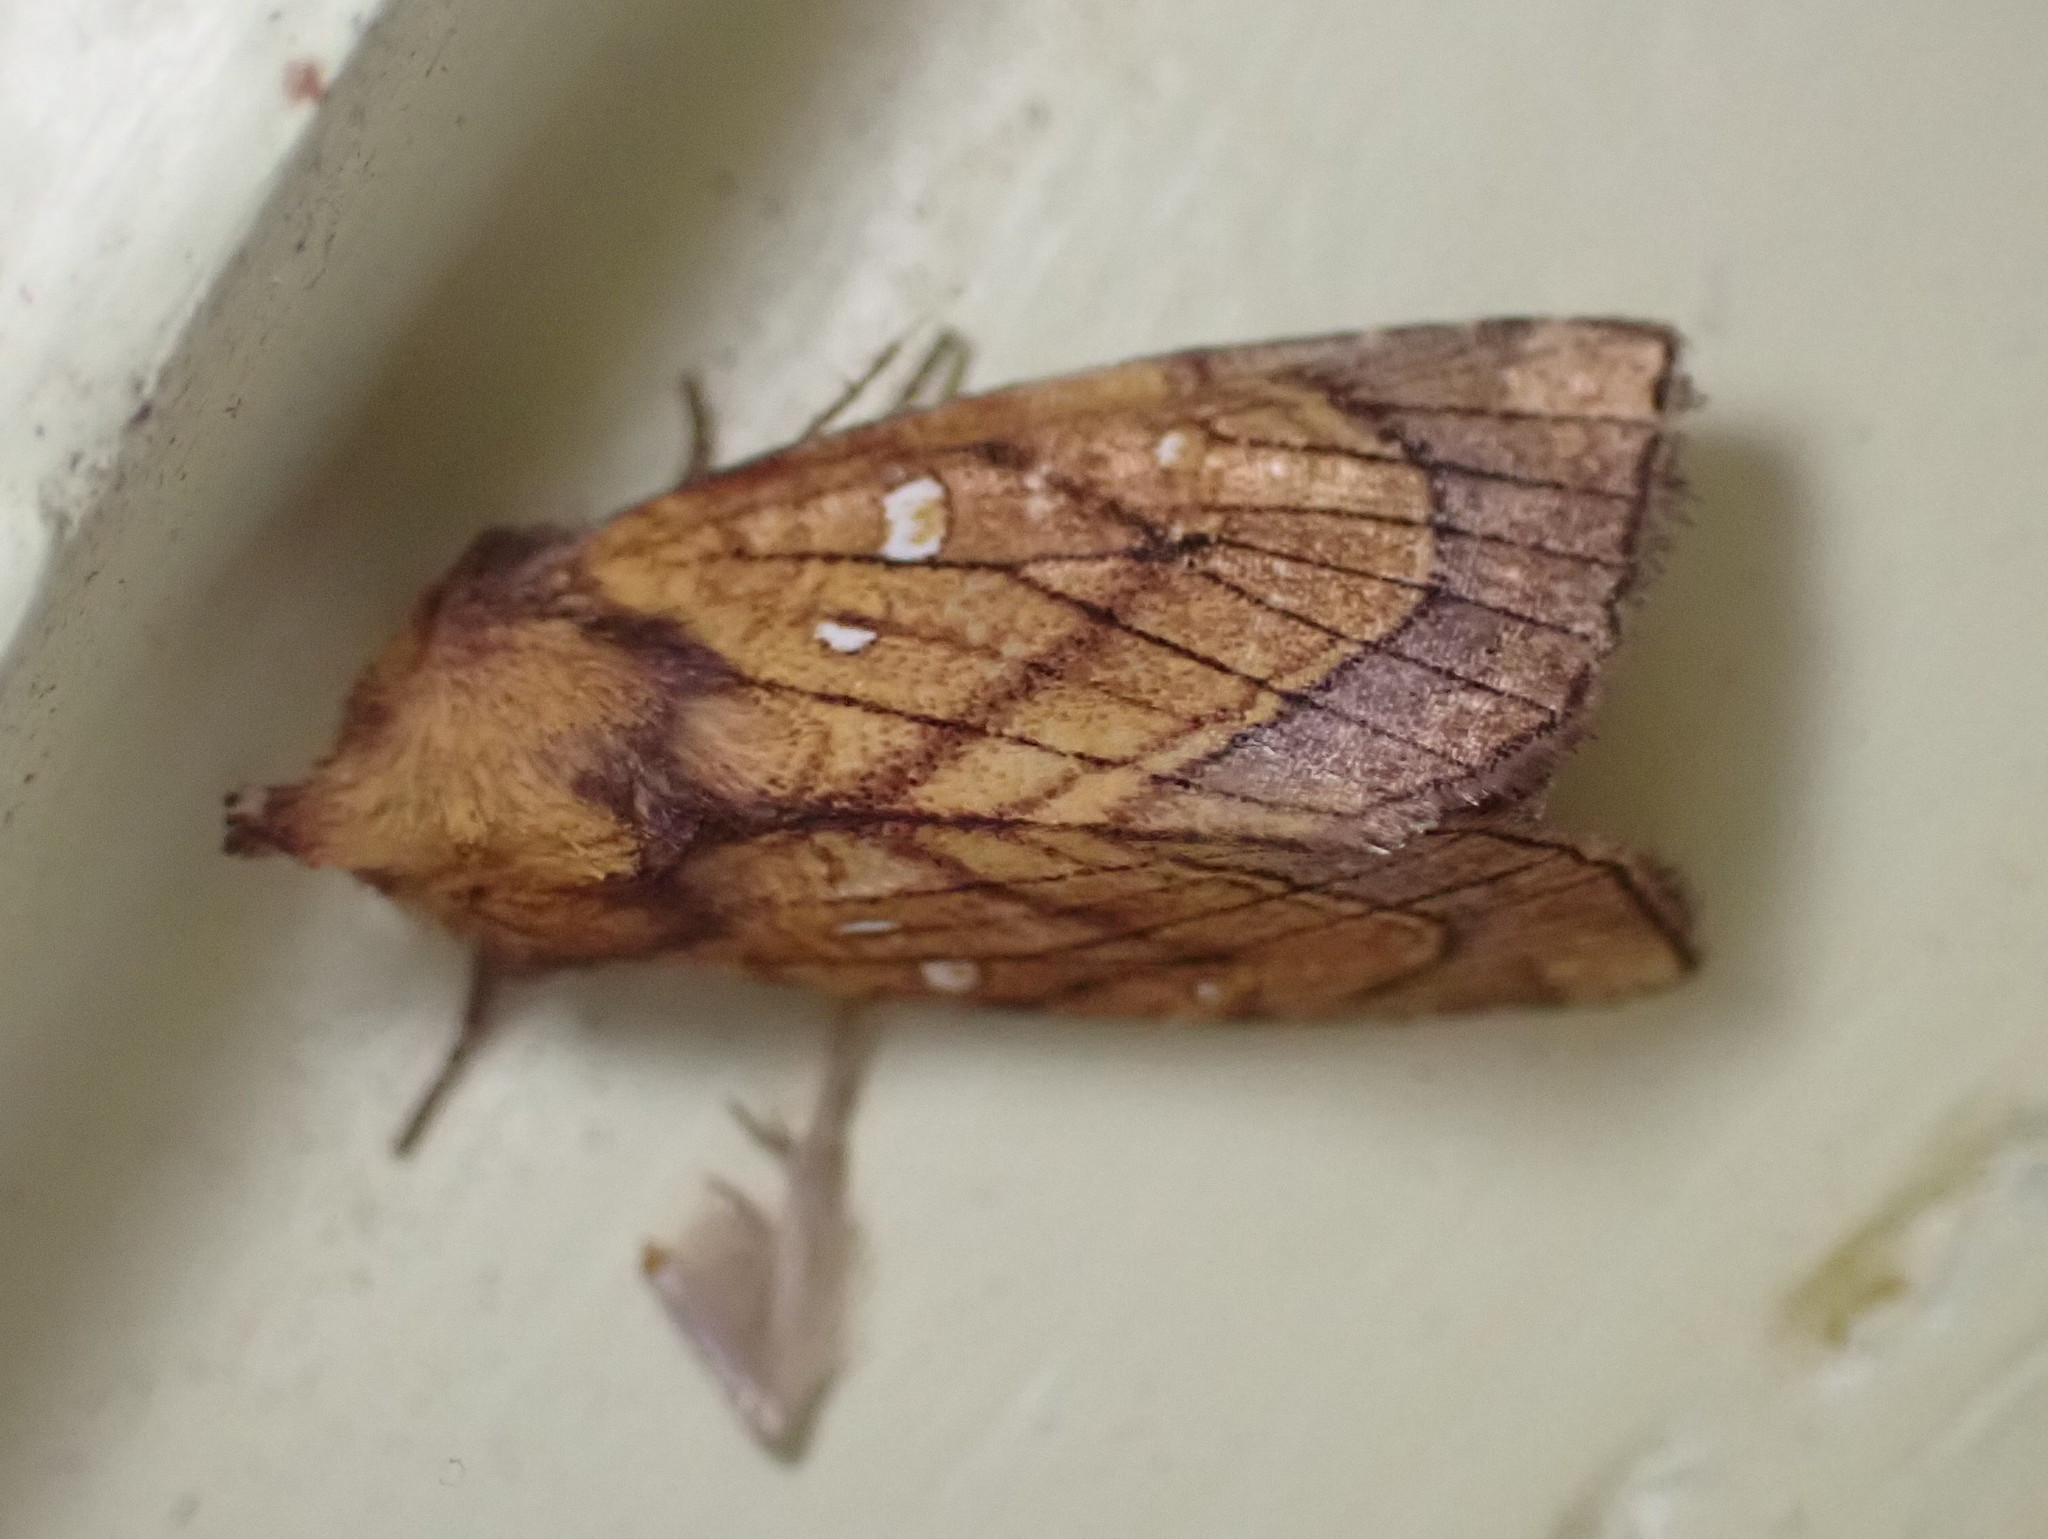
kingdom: Animalia
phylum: Arthropoda
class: Insecta
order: Lepidoptera
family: Noctuidae
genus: Papaipema
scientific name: Papaipema inquaesita
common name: Sensitive fern borer moth
